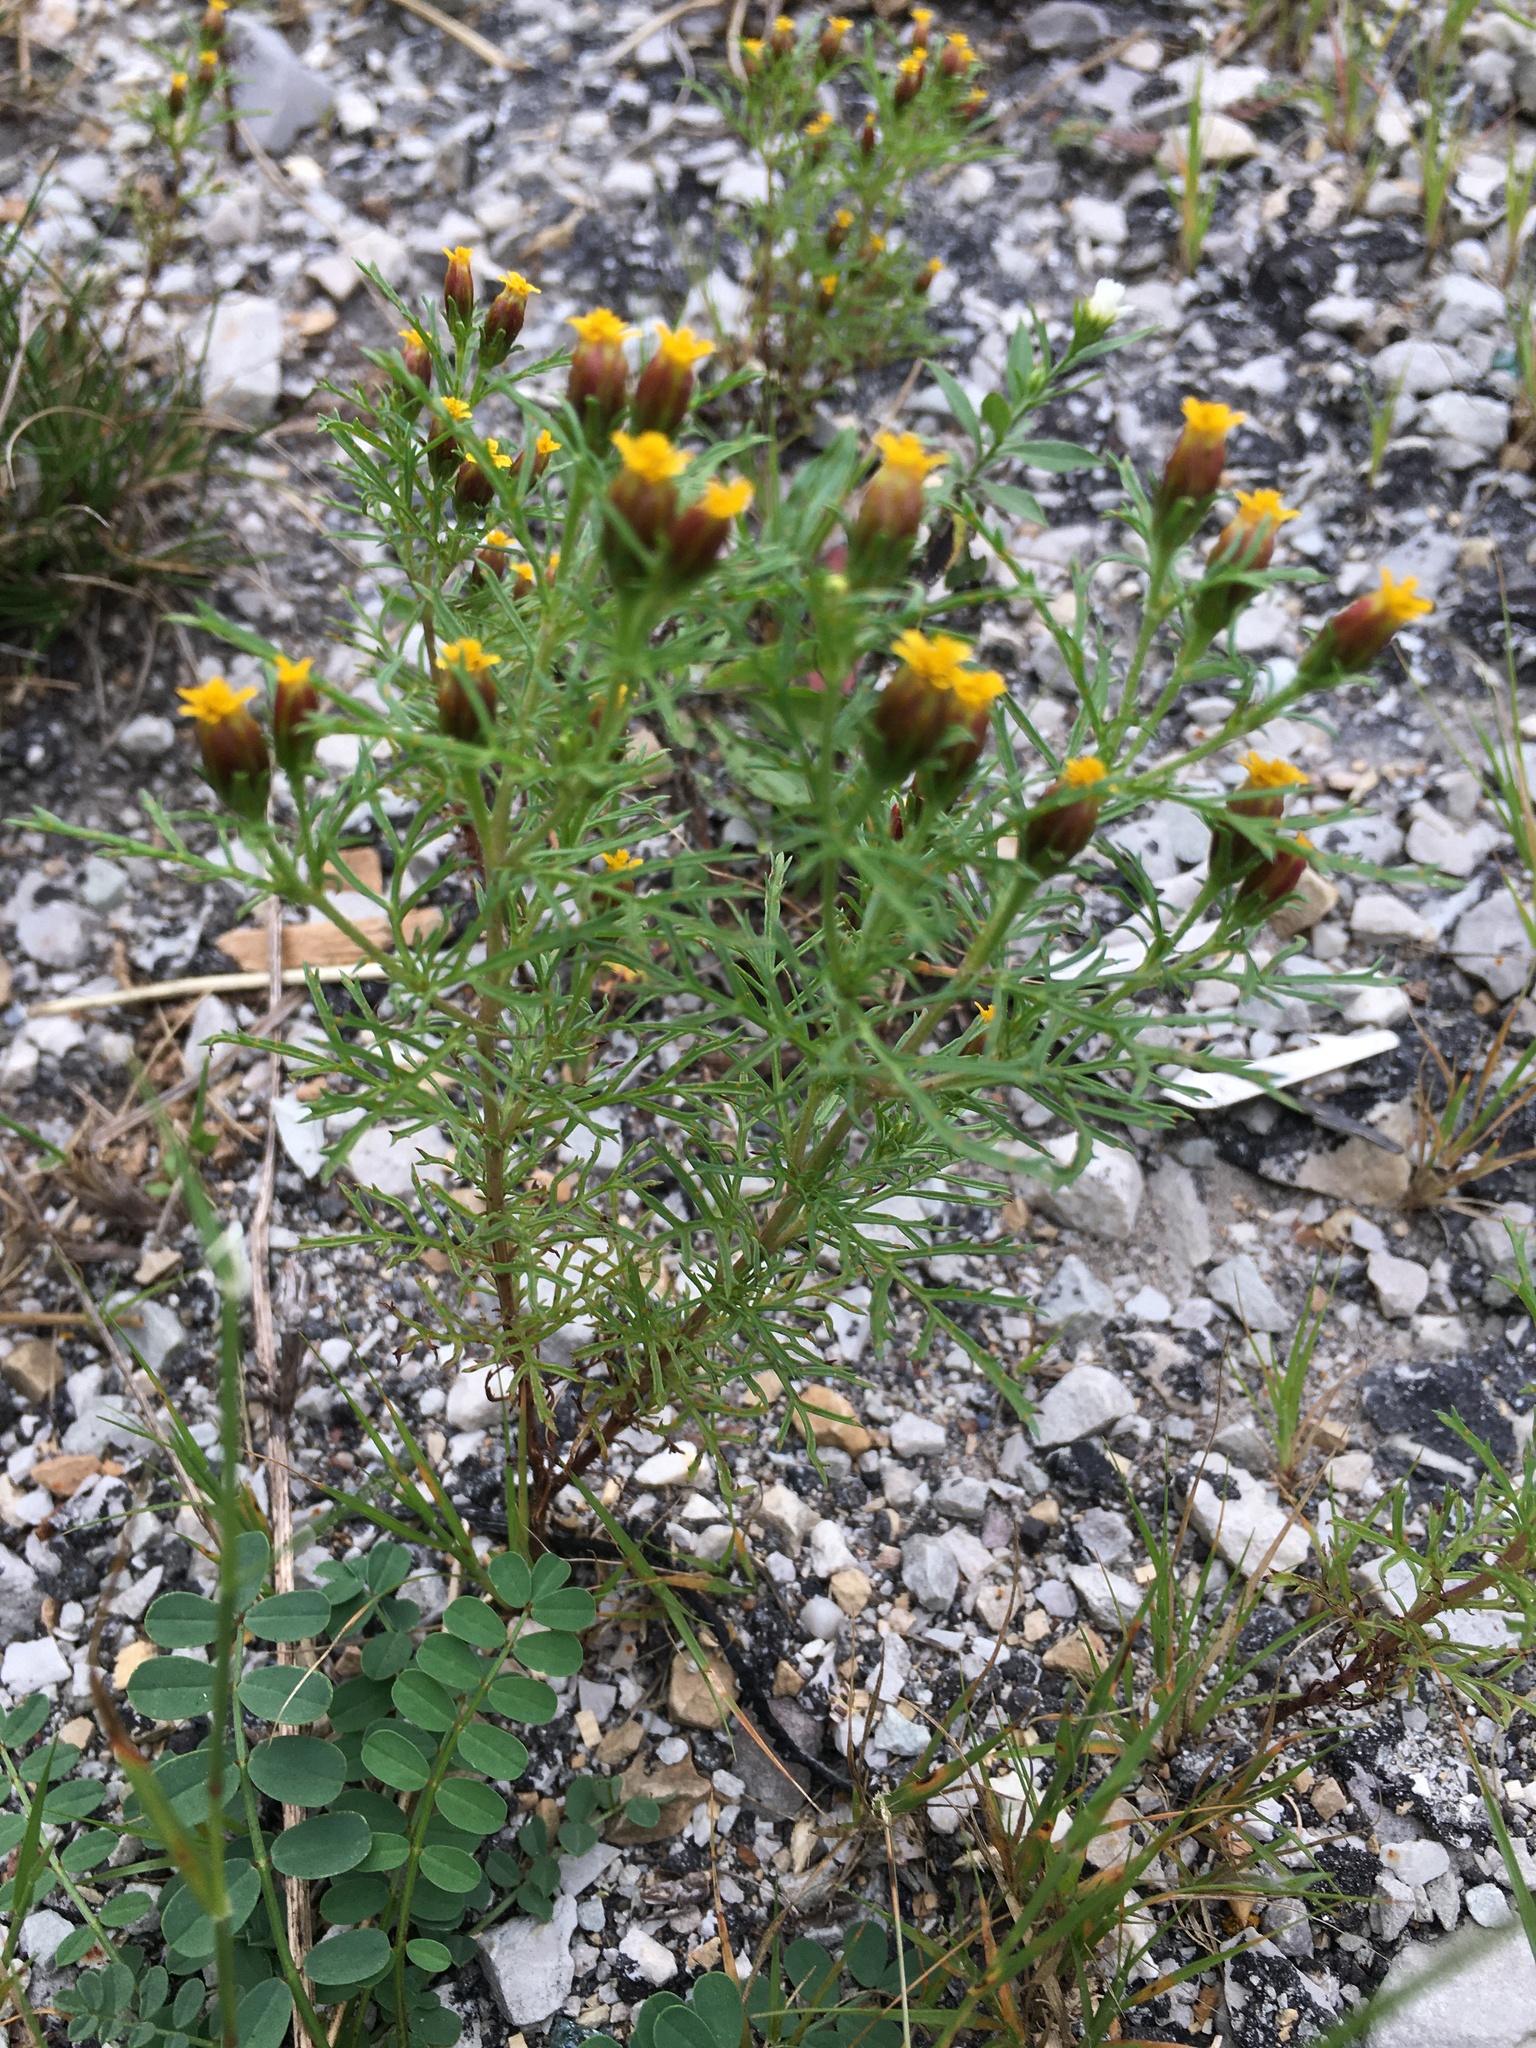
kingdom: Plantae
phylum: Tracheophyta
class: Magnoliopsida
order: Asterales
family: Asteraceae
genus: Dyssodia
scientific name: Dyssodia papposa
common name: Dogweed
